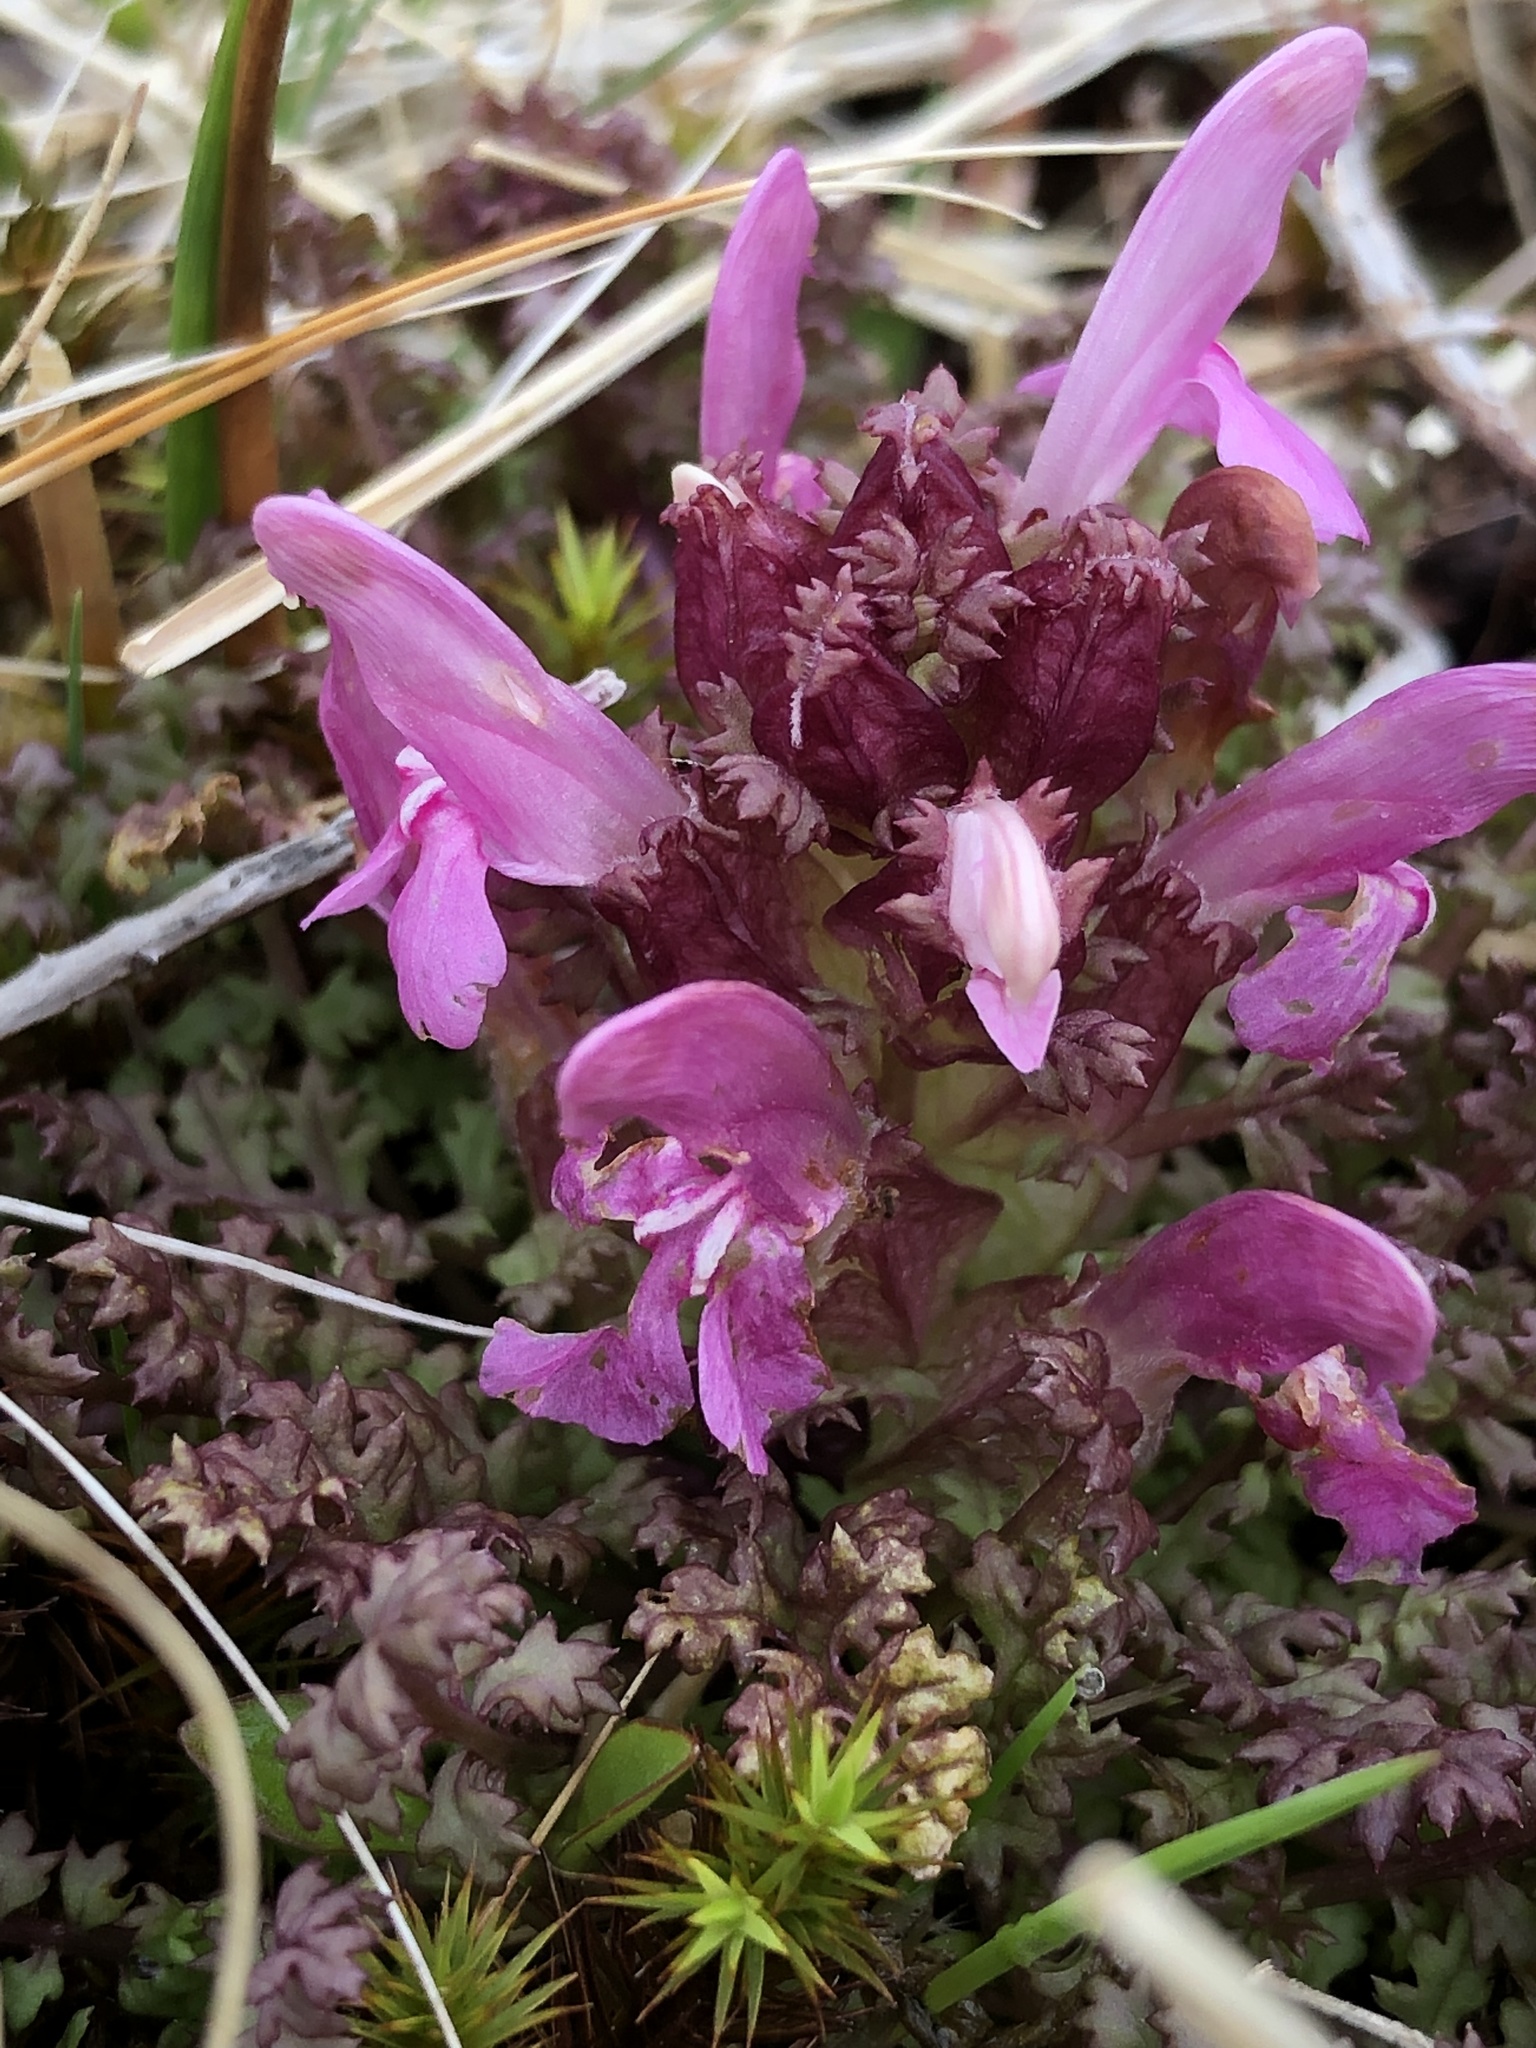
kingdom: Plantae
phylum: Tracheophyta
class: Magnoliopsida
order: Lamiales
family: Orobanchaceae
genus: Pedicularis
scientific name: Pedicularis sylvatica
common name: Lousewort
